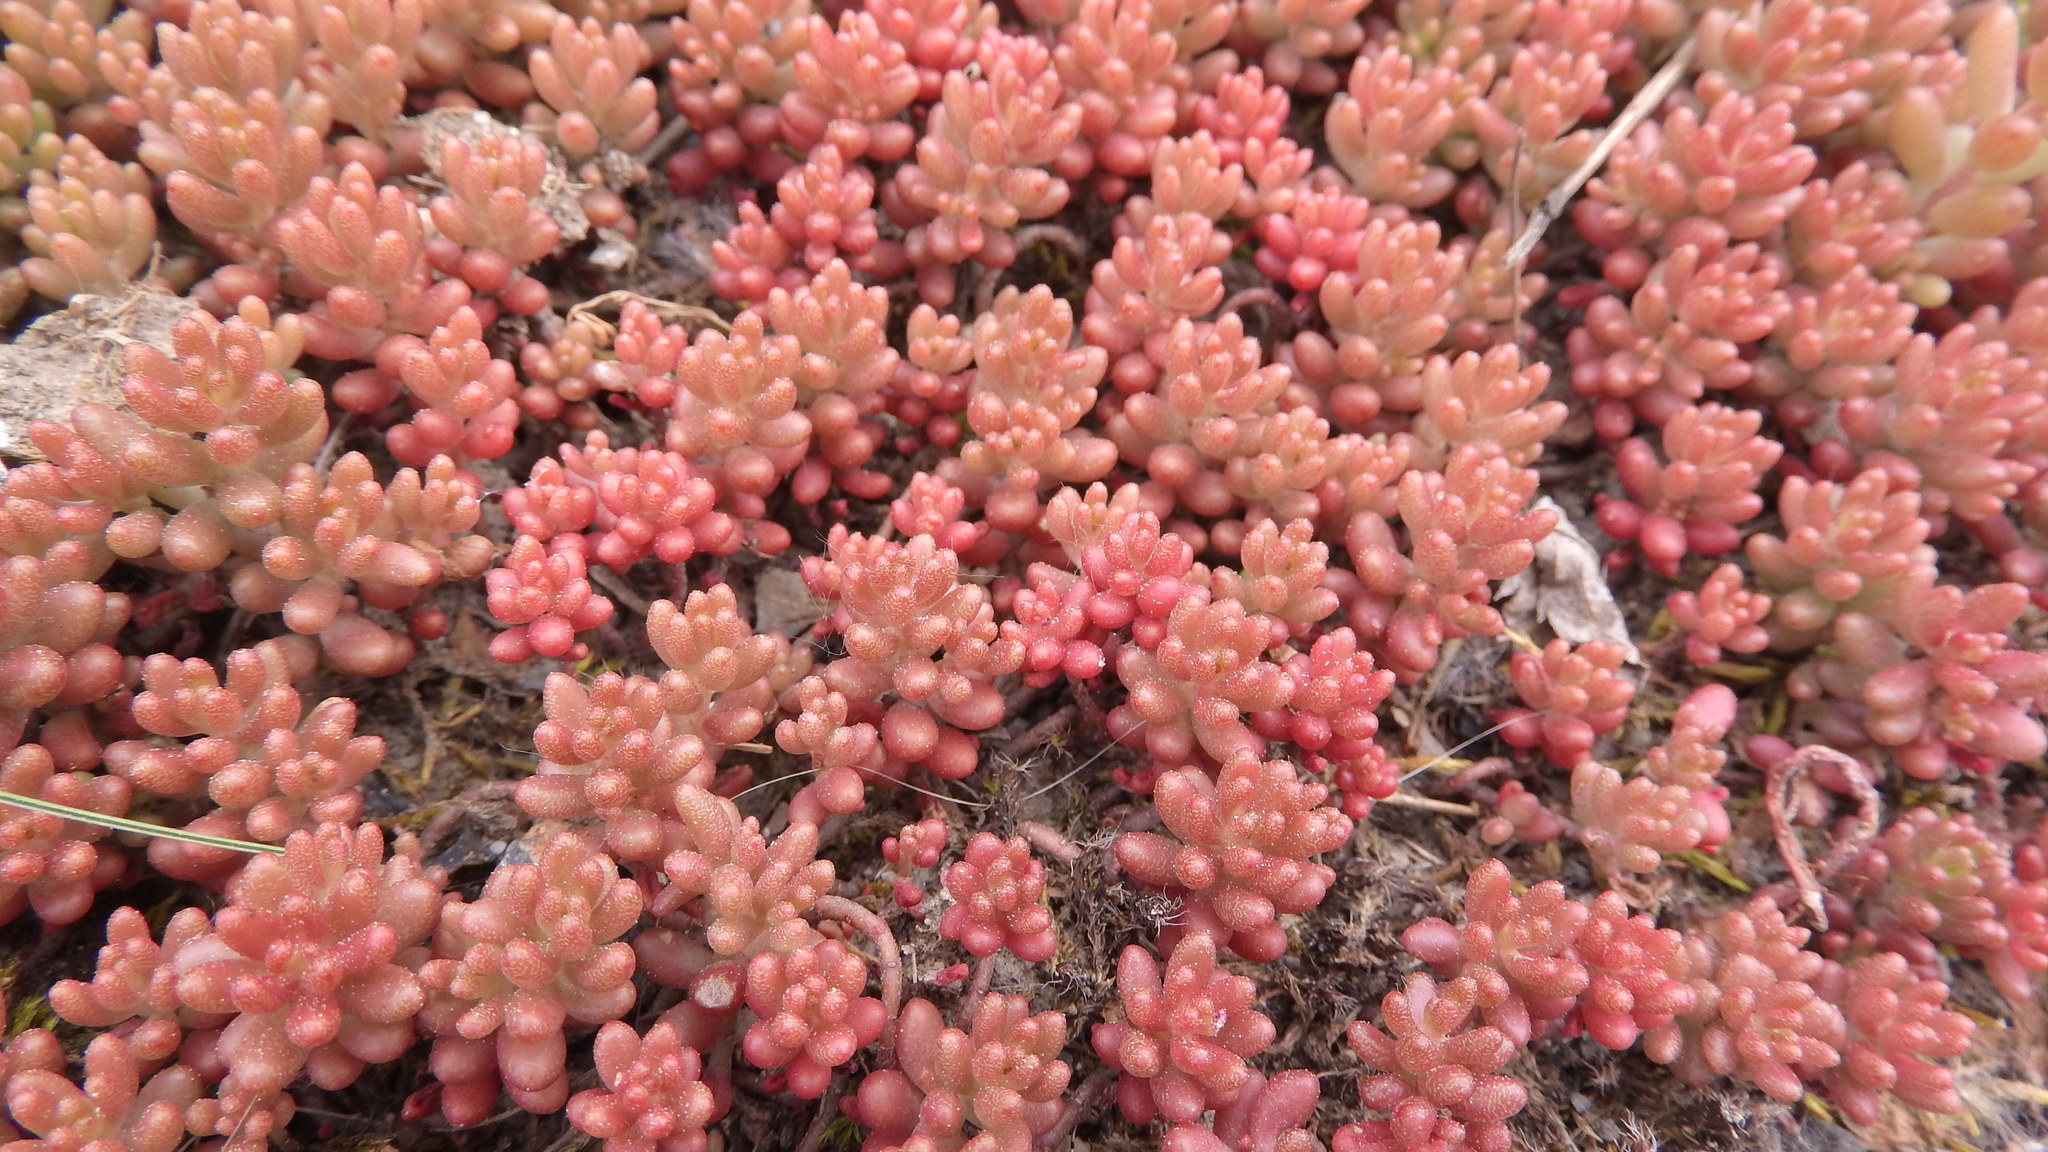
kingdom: Plantae
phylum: Tracheophyta
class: Magnoliopsida
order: Saxifragales
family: Crassulaceae
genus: Sedum
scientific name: Sedum album
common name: White stonecrop
